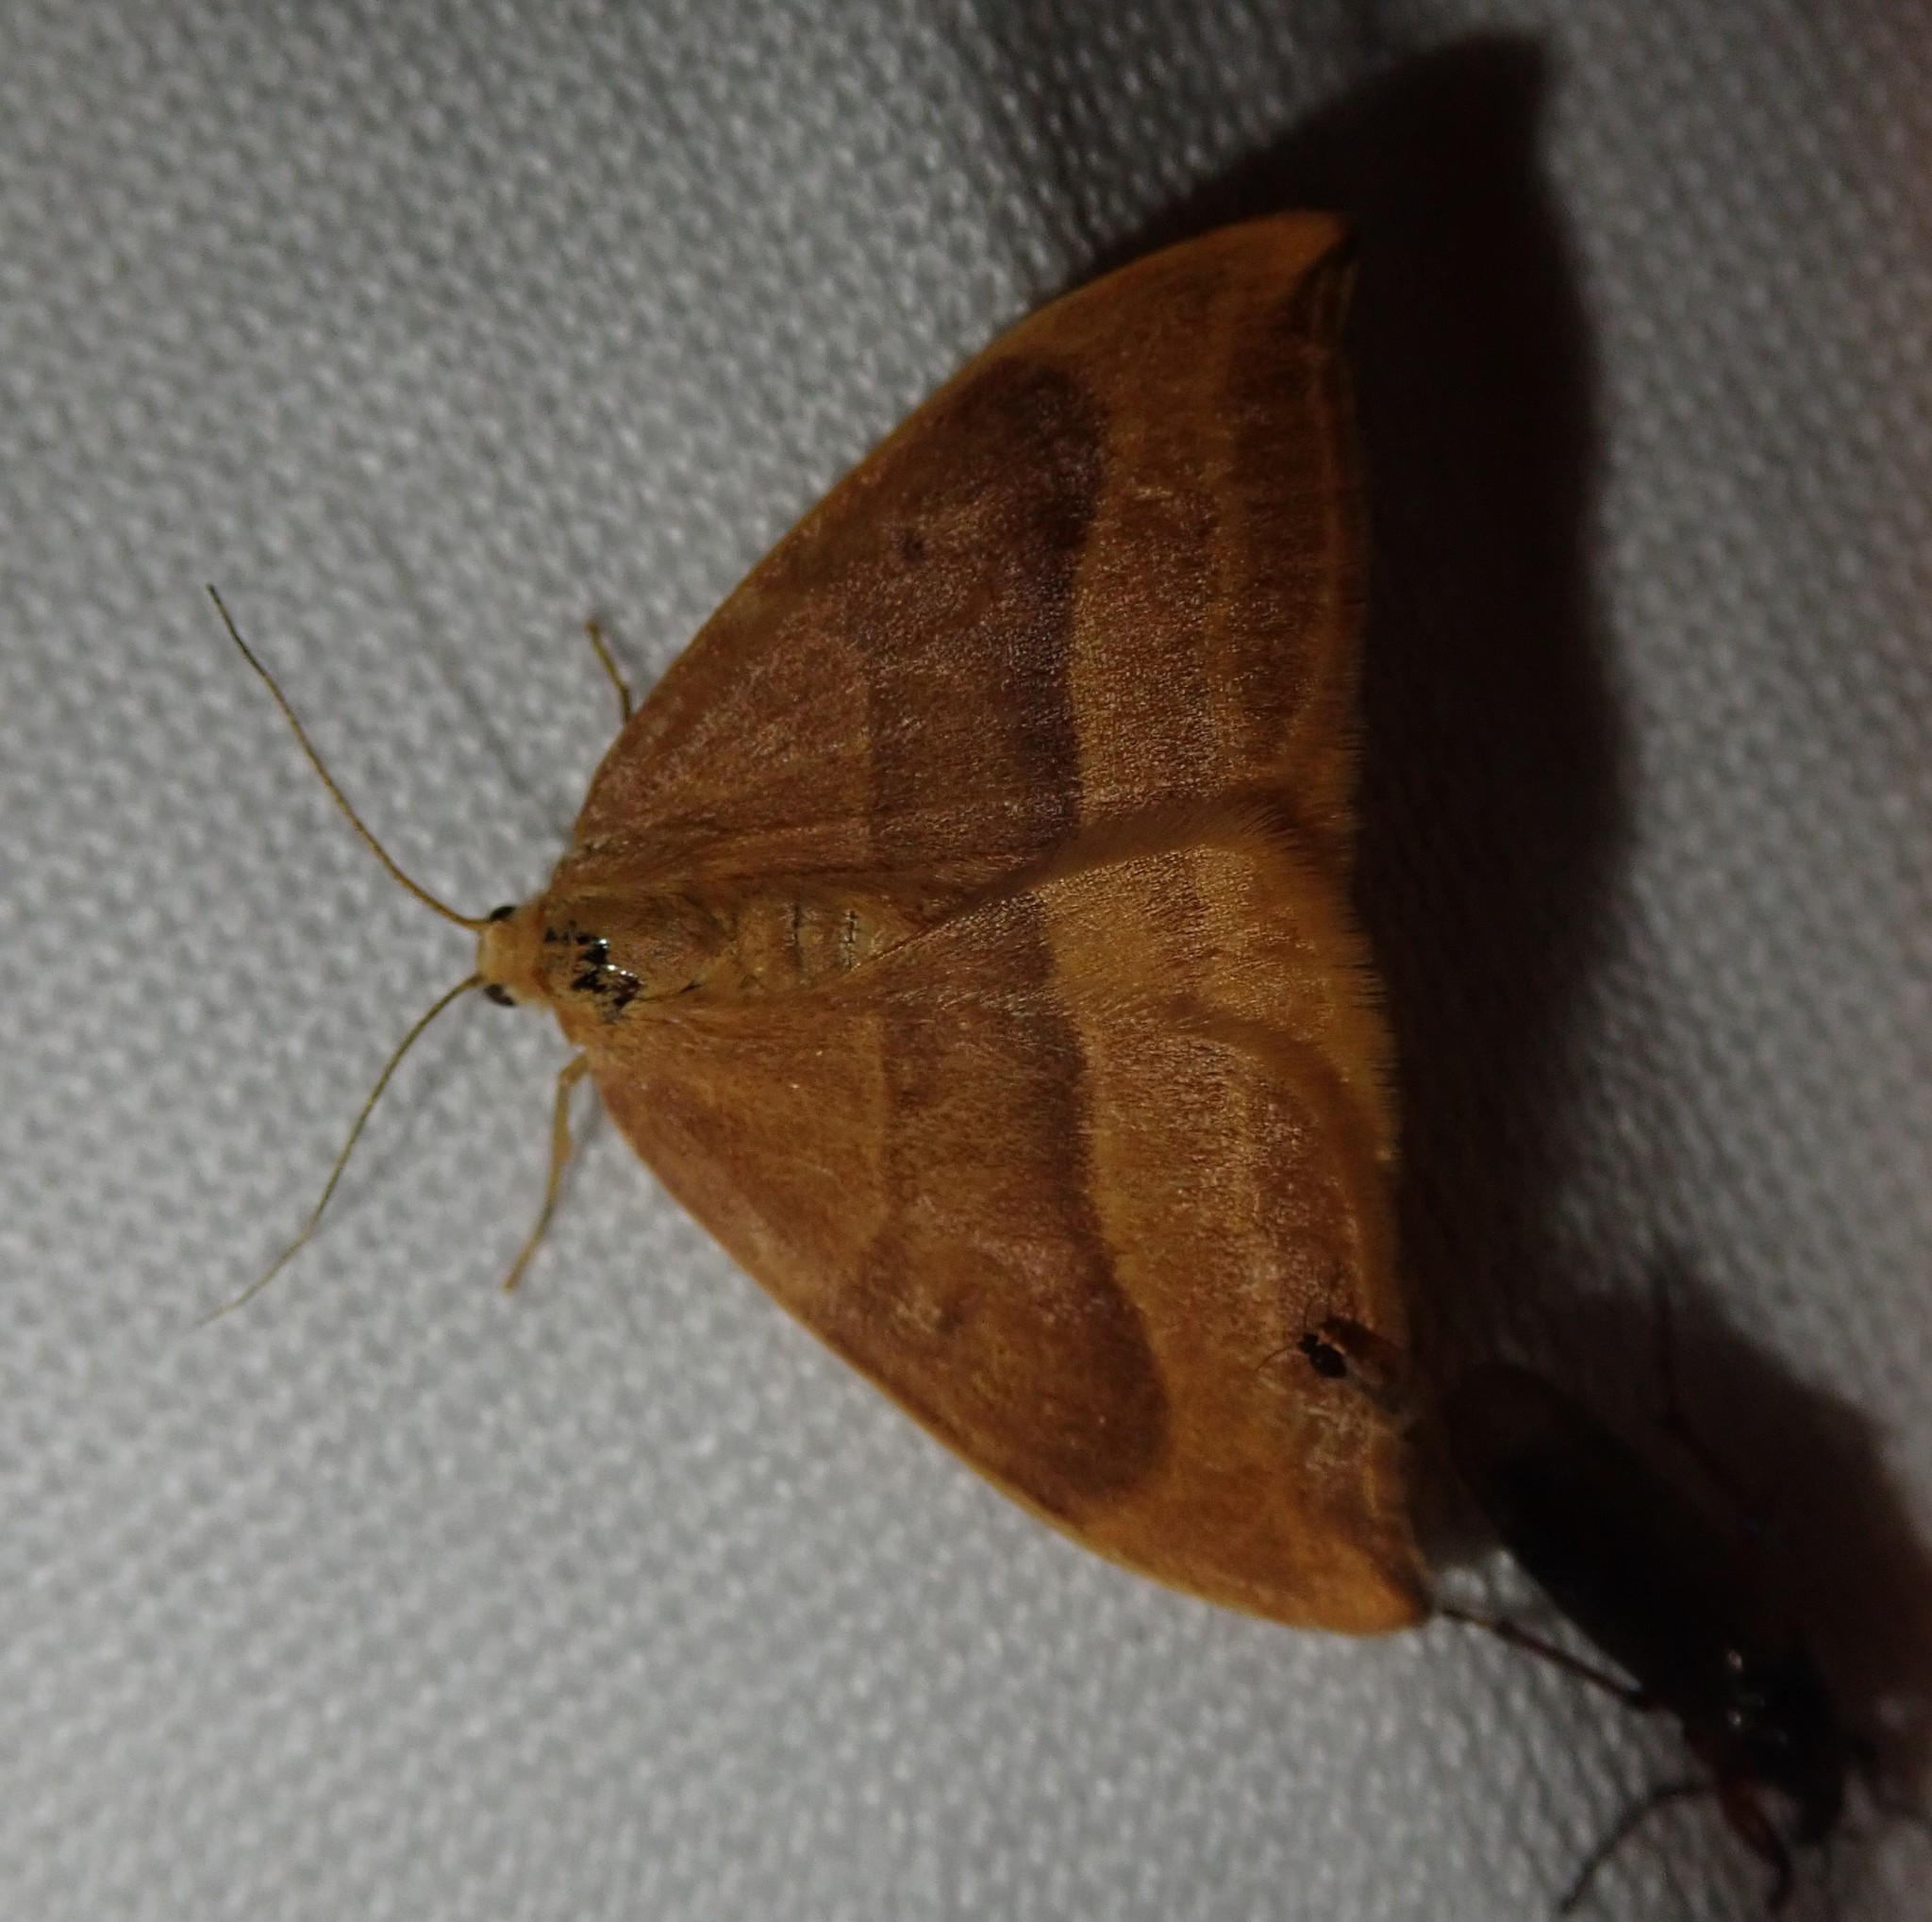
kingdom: Animalia
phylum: Arthropoda
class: Insecta
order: Lepidoptera
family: Drepanidae
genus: Watsonalla
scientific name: Watsonalla cultraria
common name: Barred hook-tip
